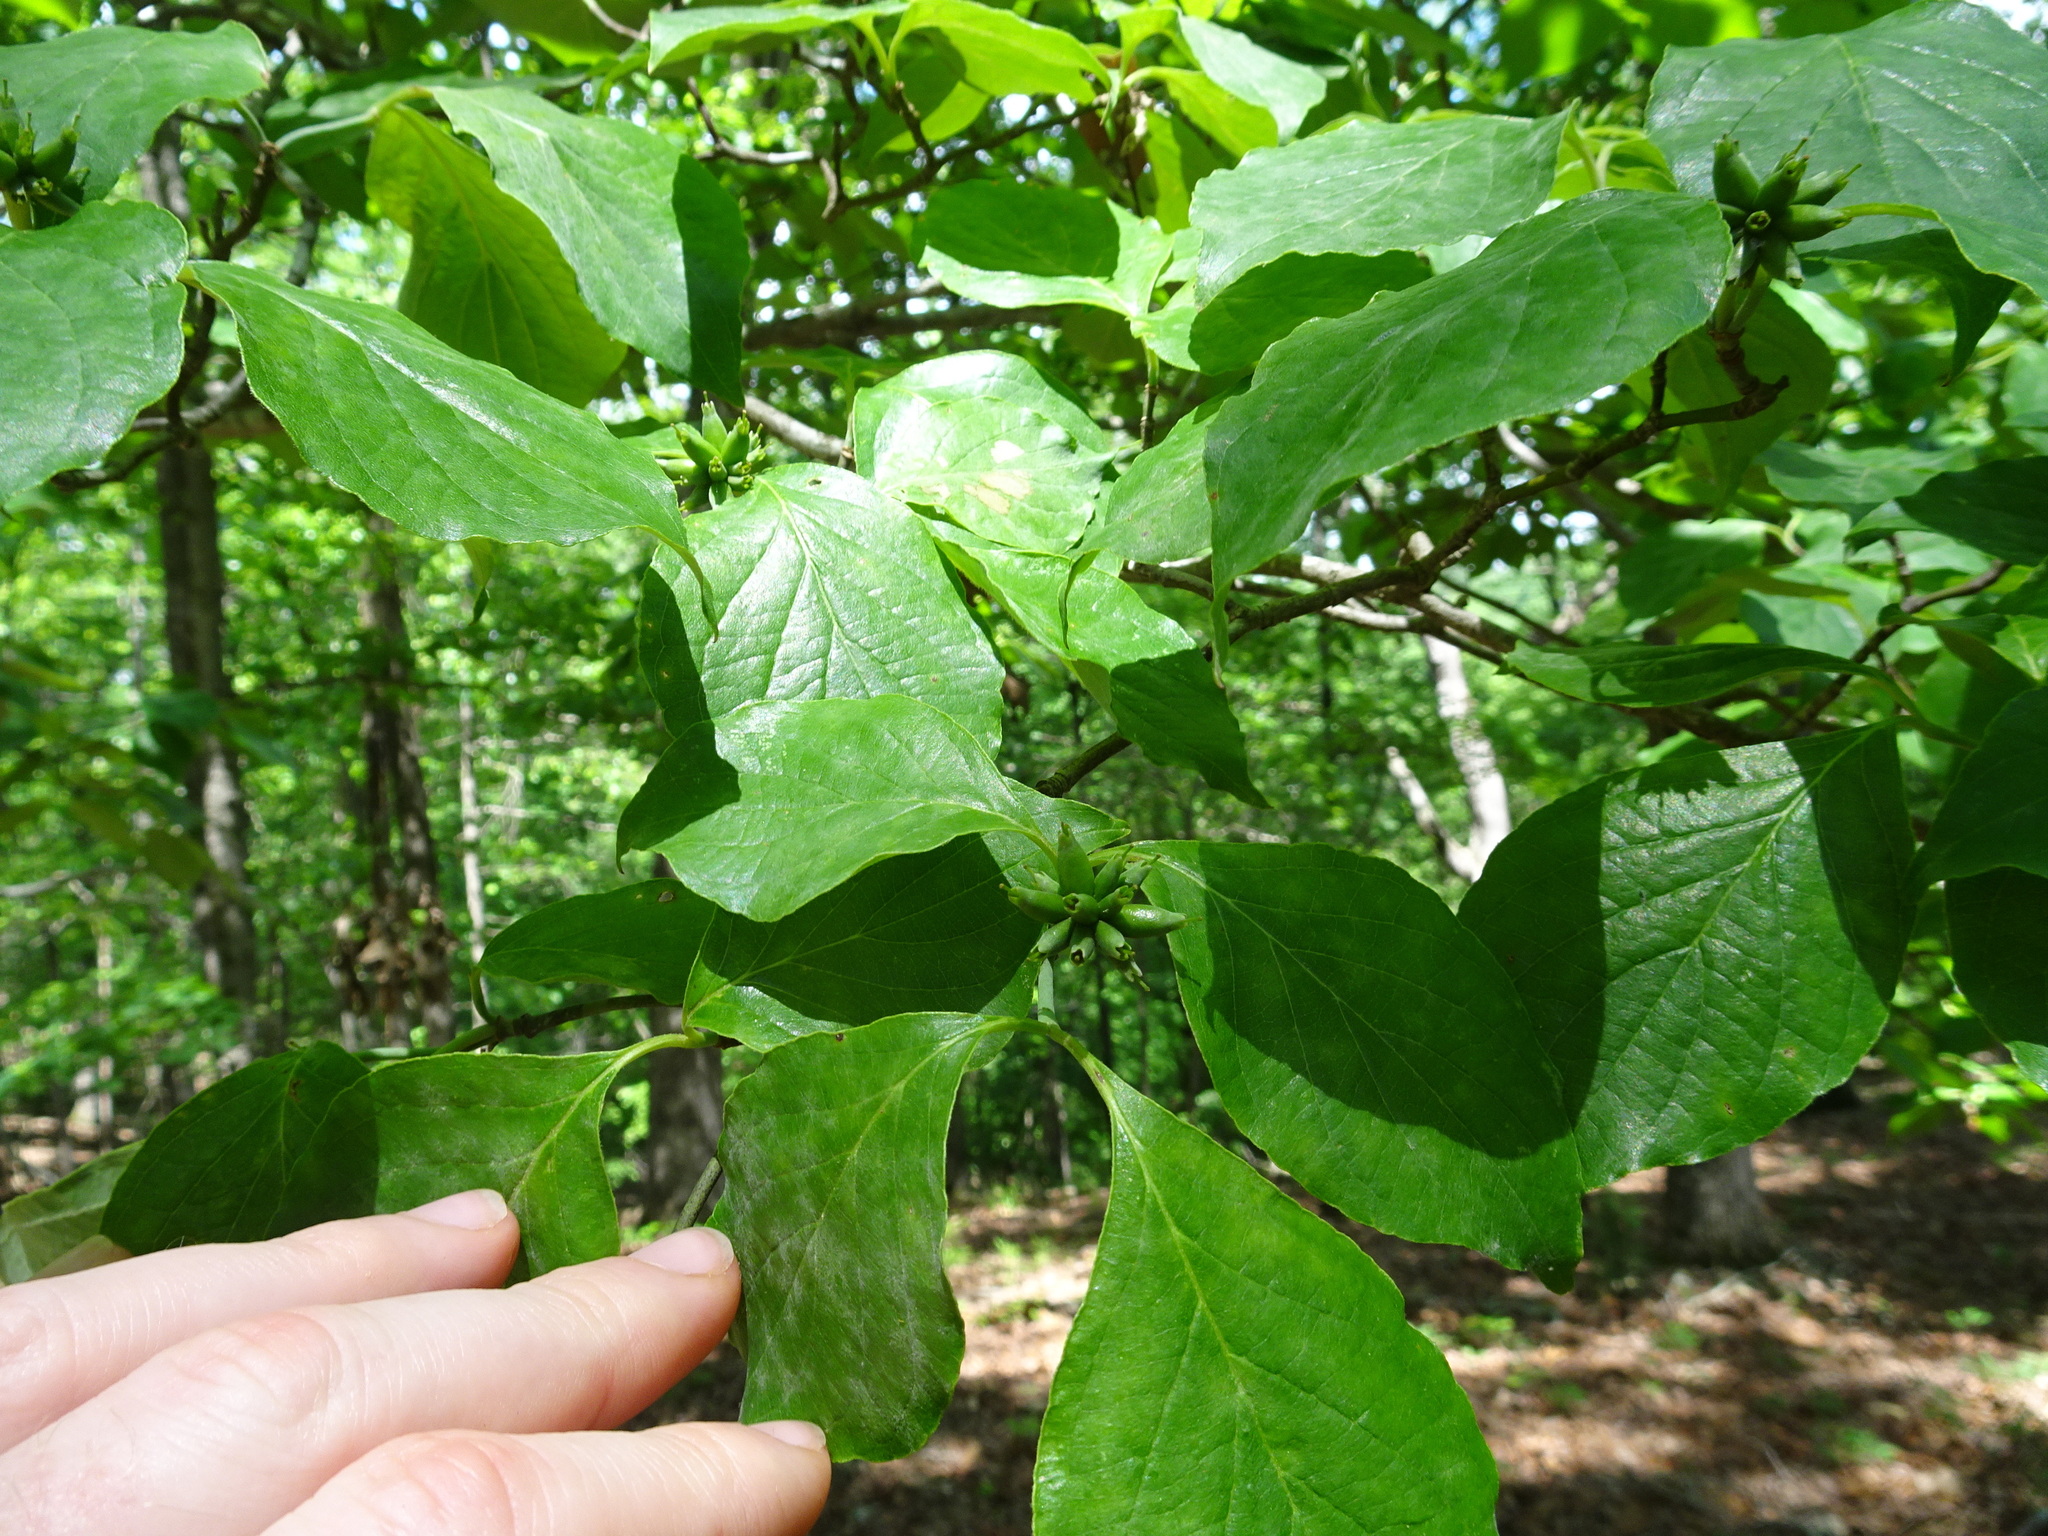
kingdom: Plantae
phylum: Tracheophyta
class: Magnoliopsida
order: Cornales
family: Cornaceae
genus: Cornus
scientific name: Cornus florida
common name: Flowering dogwood
